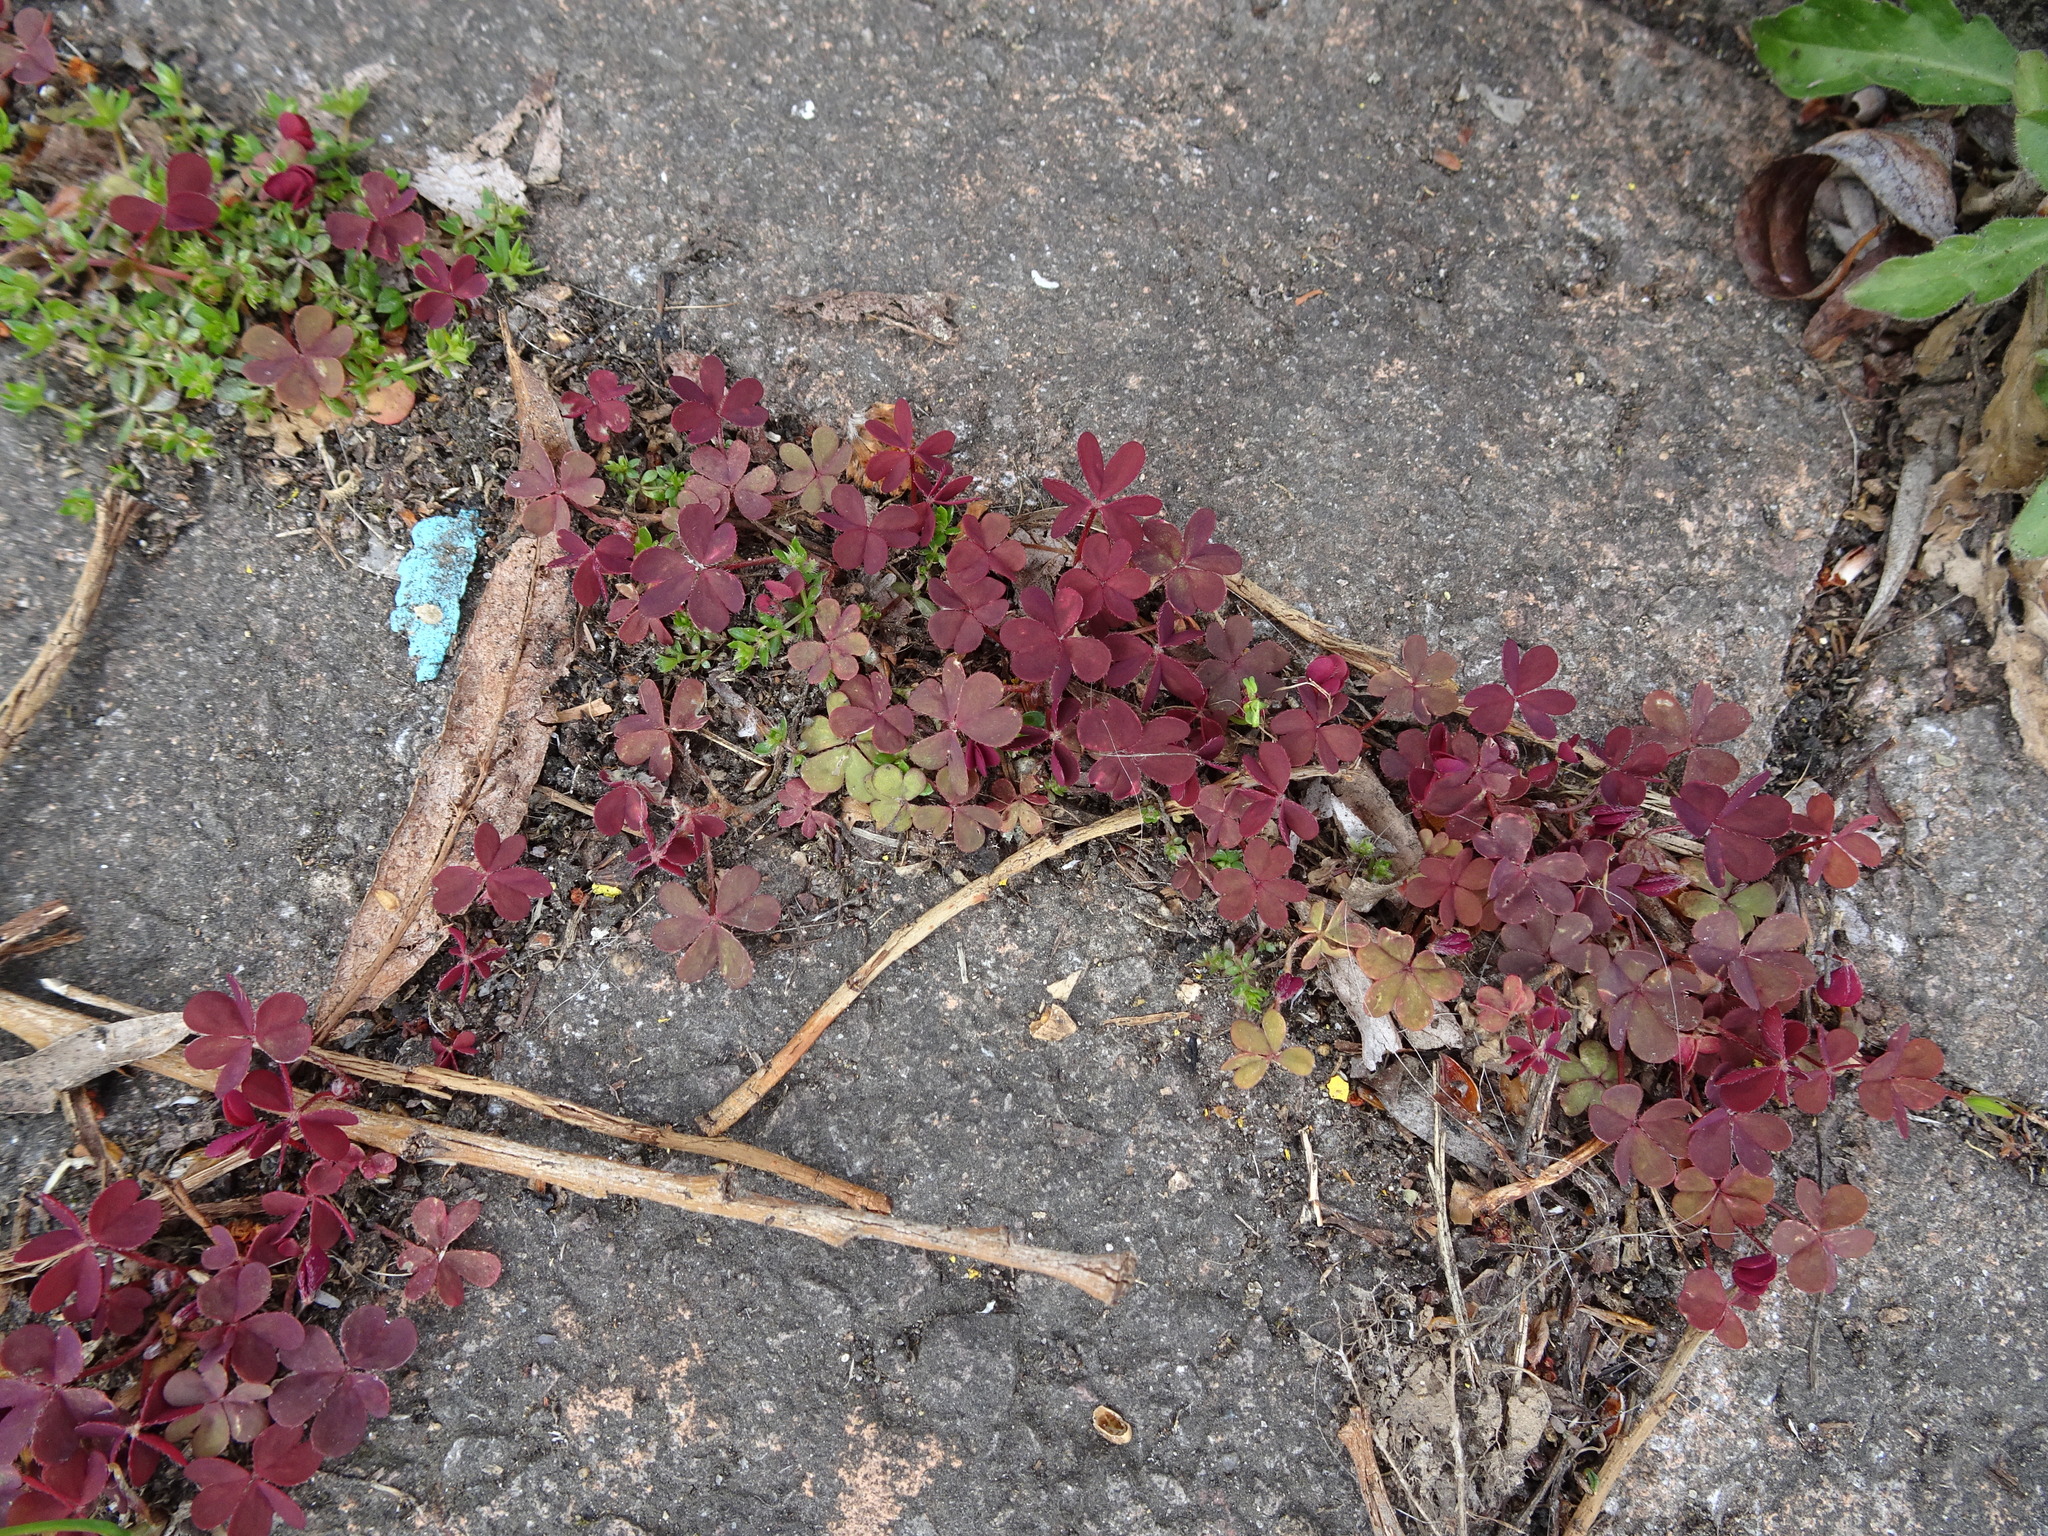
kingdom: Plantae
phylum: Tracheophyta
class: Magnoliopsida
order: Oxalidales
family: Oxalidaceae
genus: Oxalis
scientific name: Oxalis corniculata
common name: Procumbent yellow-sorrel
